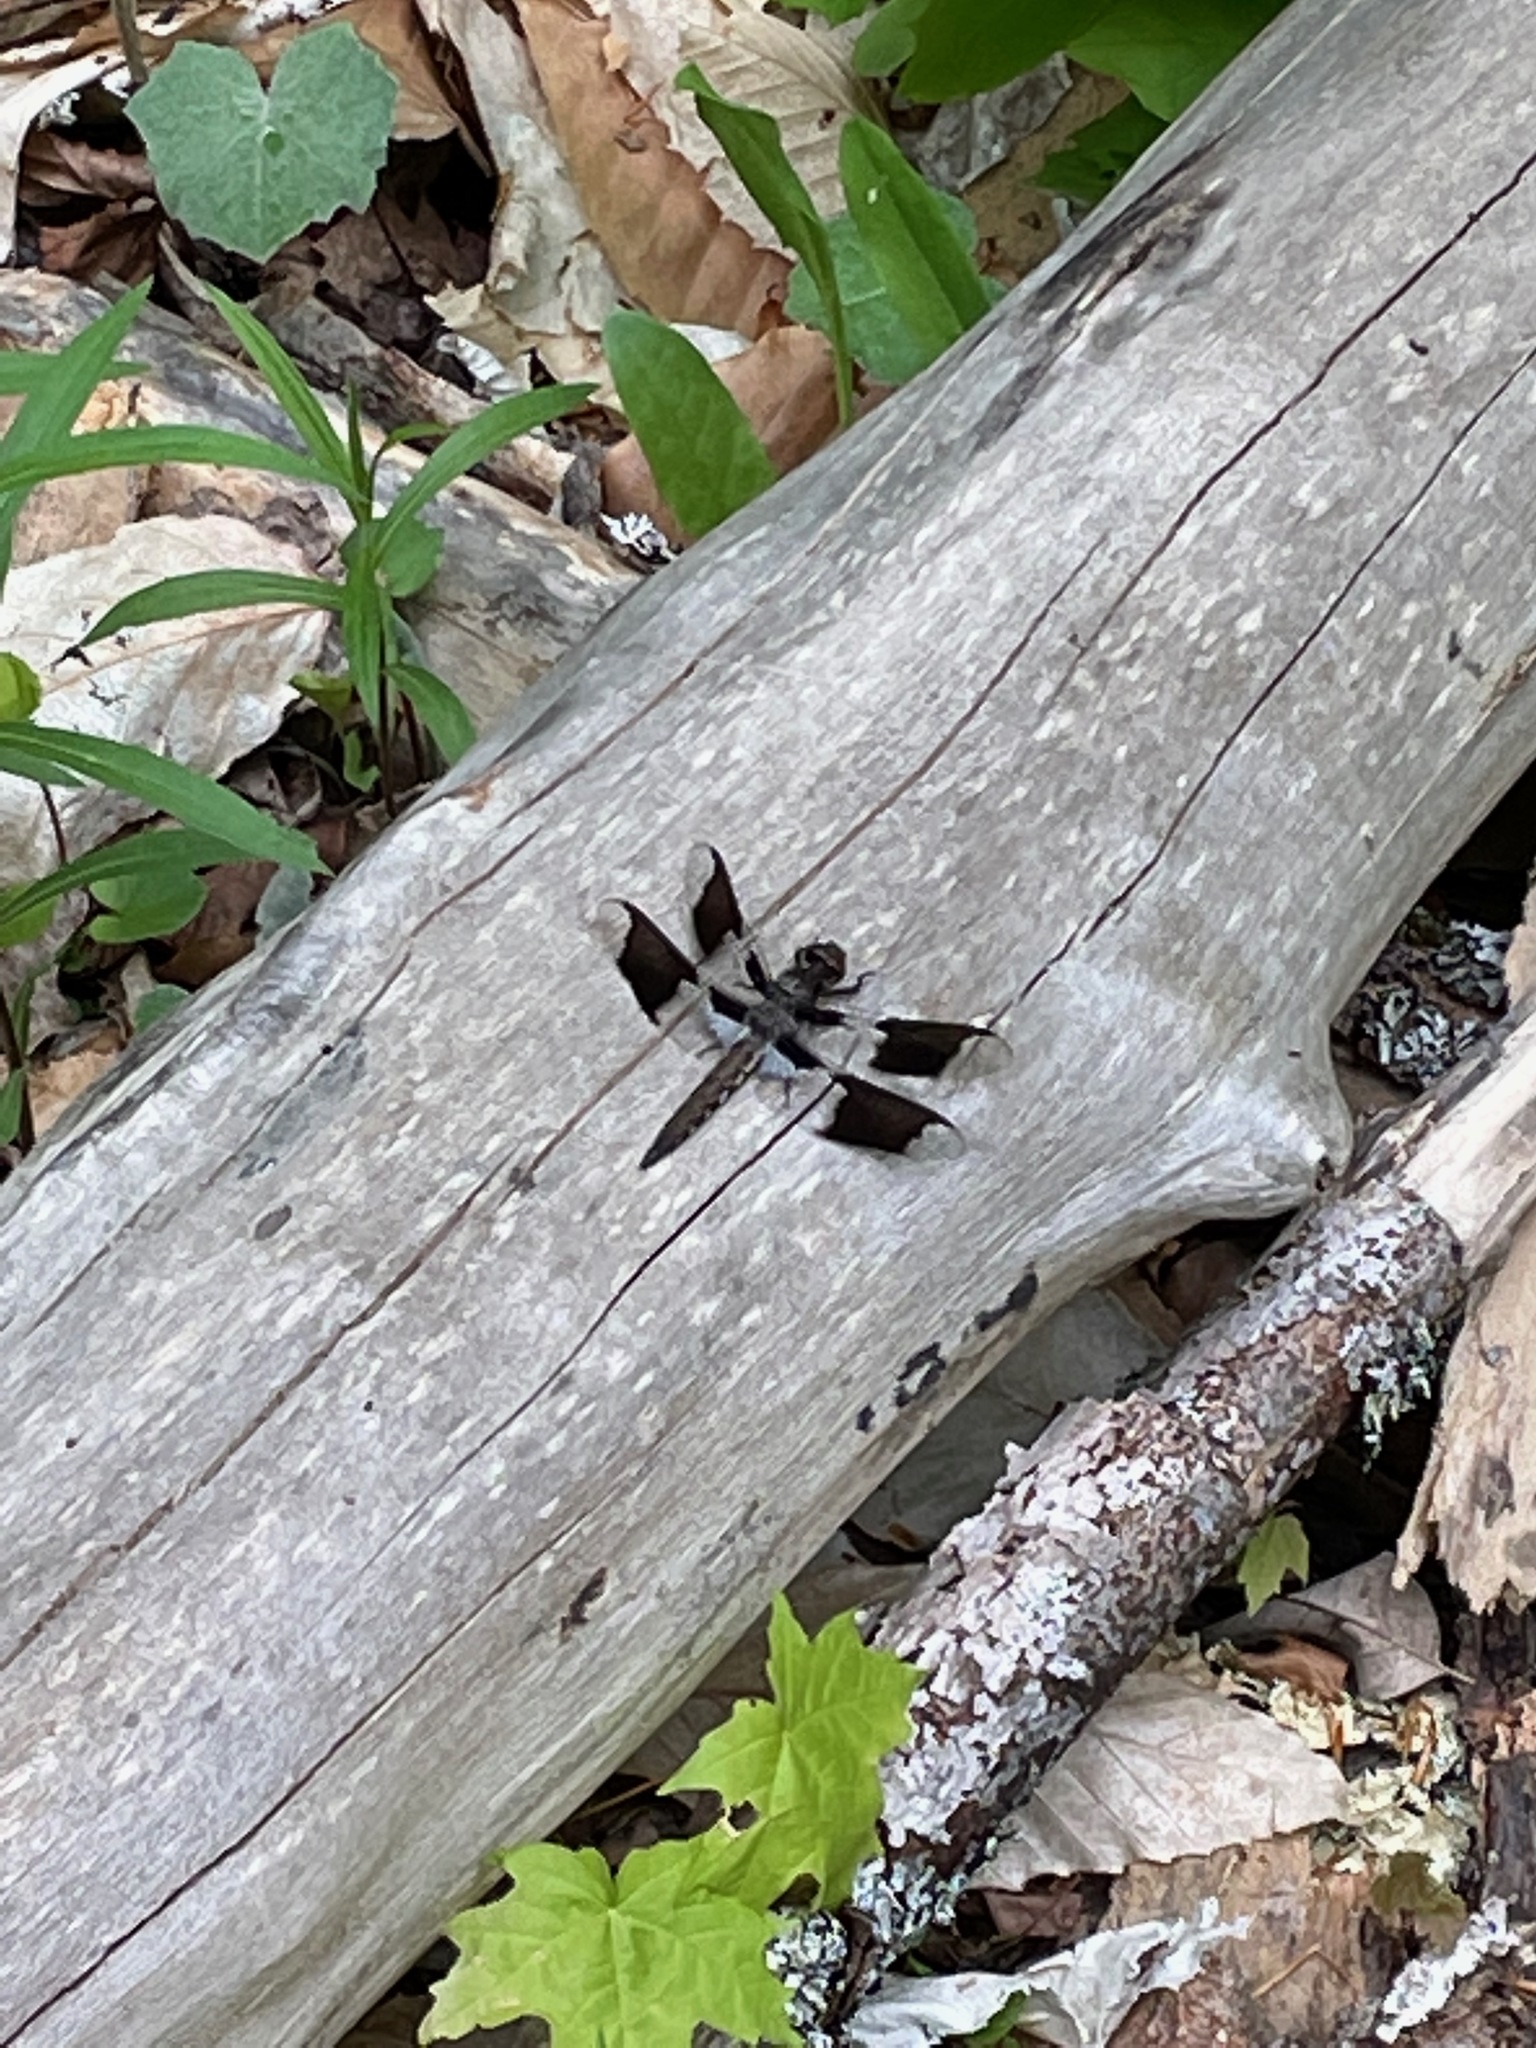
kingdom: Animalia
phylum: Arthropoda
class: Insecta
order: Odonata
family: Libellulidae
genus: Plathemis
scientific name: Plathemis lydia
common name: Common whitetail
